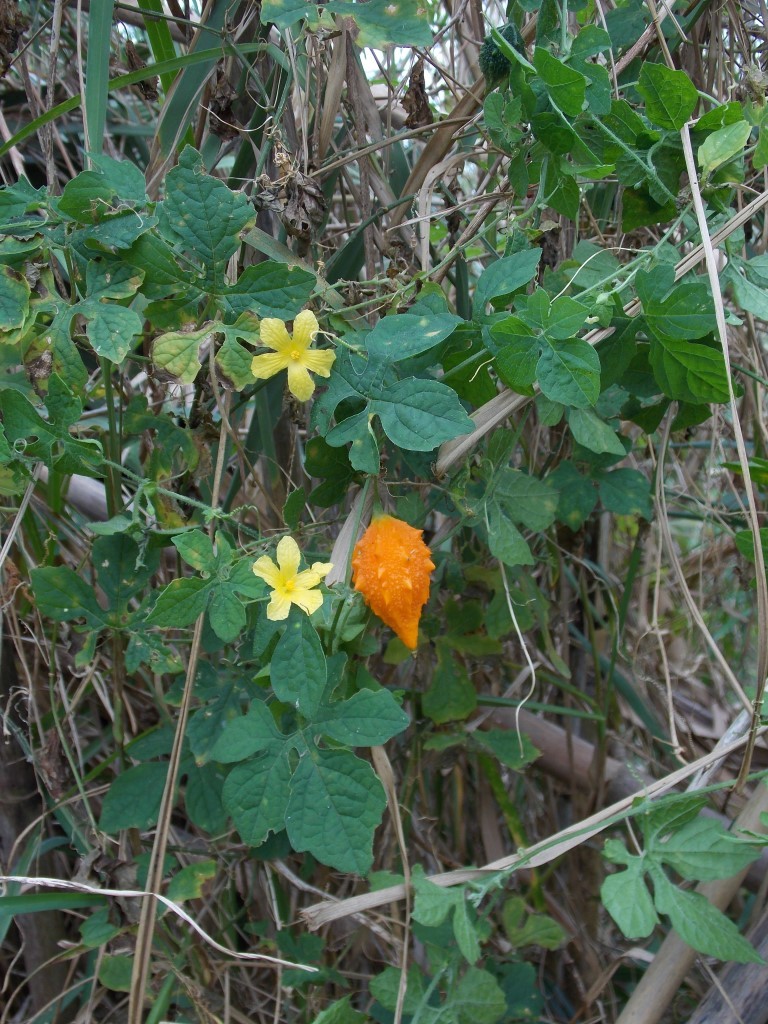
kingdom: Plantae
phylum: Tracheophyta
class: Magnoliopsida
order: Cucurbitales
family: Cucurbitaceae
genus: Momordica
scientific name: Momordica charantia
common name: Balsampear
